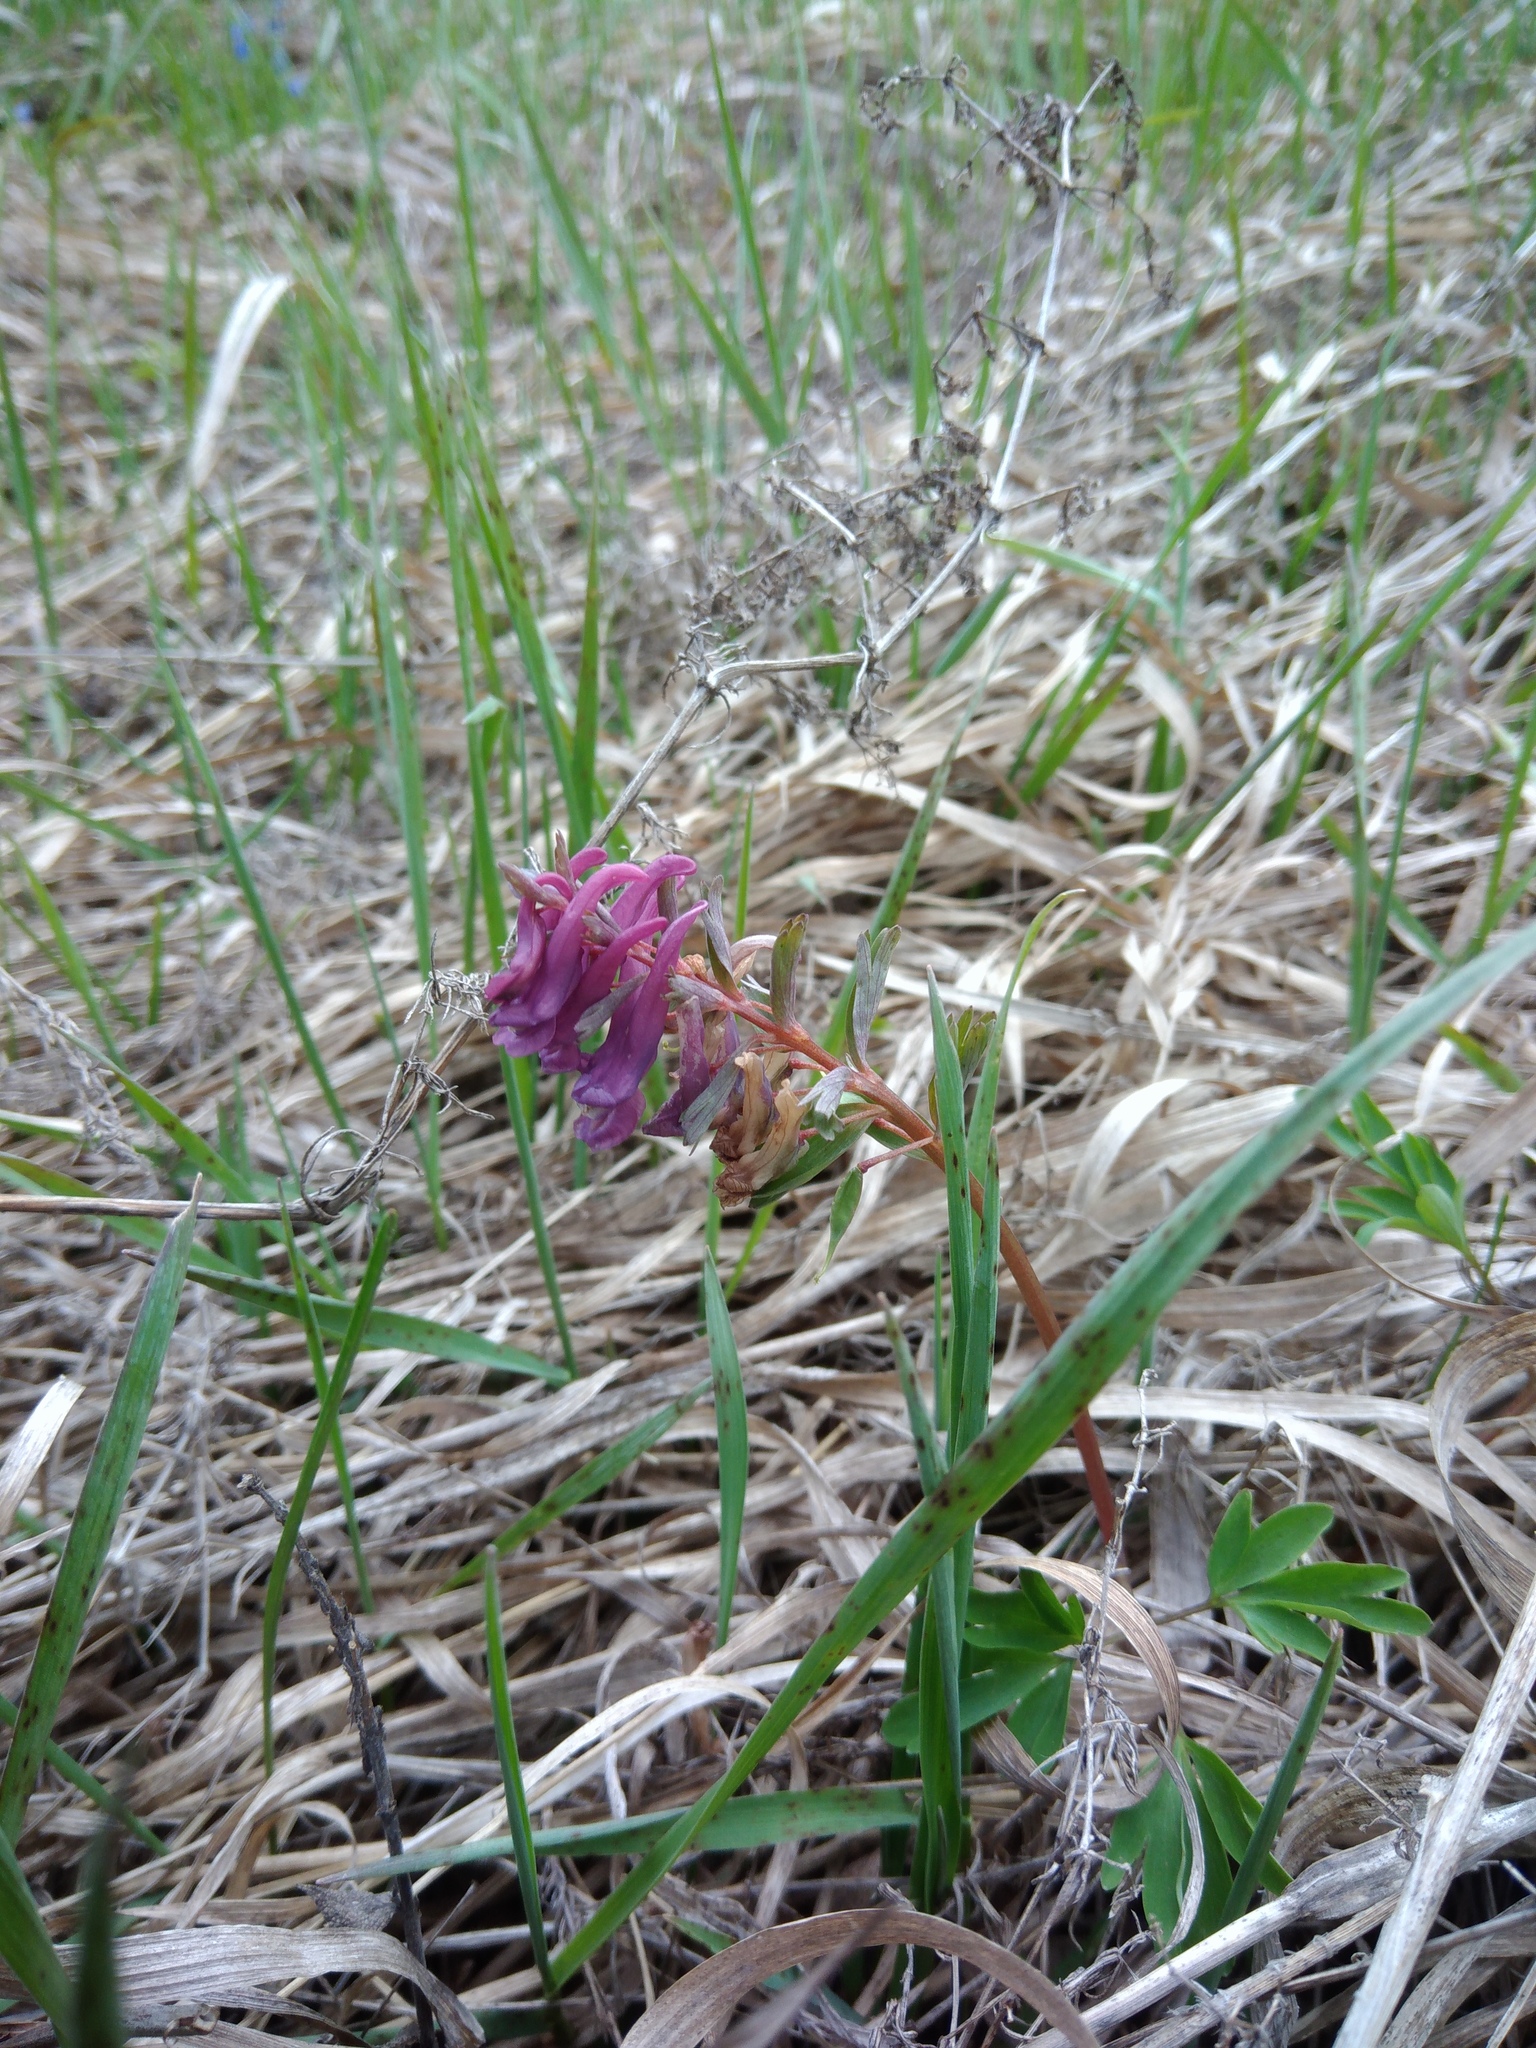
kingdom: Plantae
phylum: Tracheophyta
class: Magnoliopsida
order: Ranunculales
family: Papaveraceae
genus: Corydalis
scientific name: Corydalis solida
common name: Bird-in-a-bush
